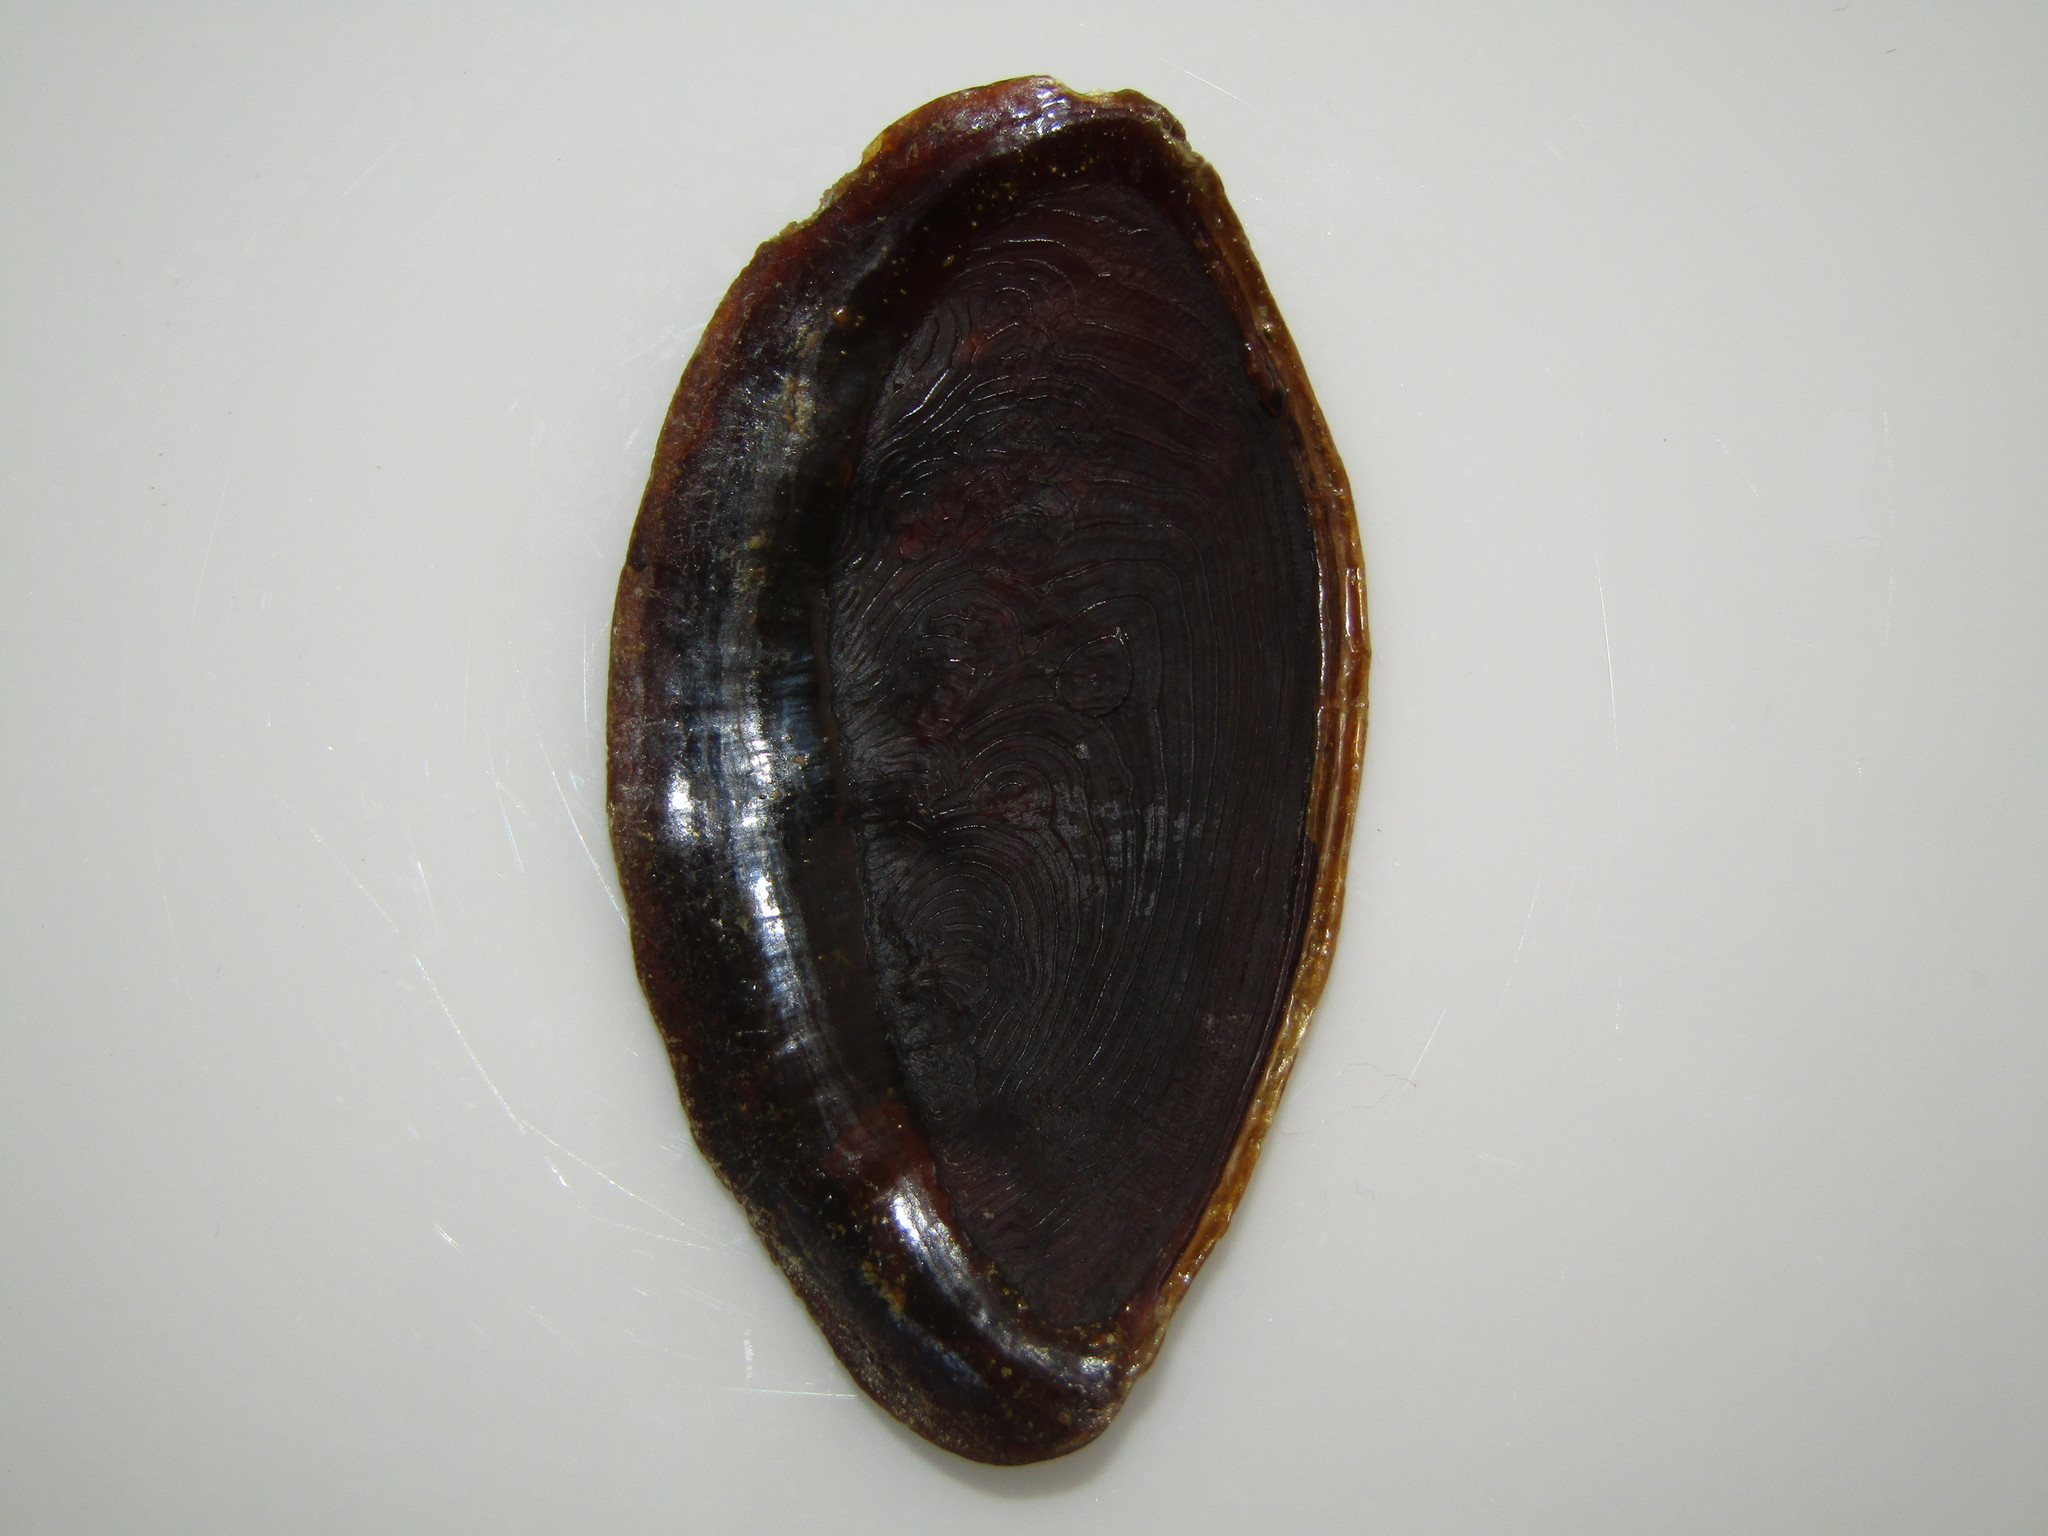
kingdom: Animalia
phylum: Mollusca
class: Gastropoda
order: Littorinimorpha
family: Charoniidae
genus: Charonia
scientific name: Charonia lampas
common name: Knobbed triton
